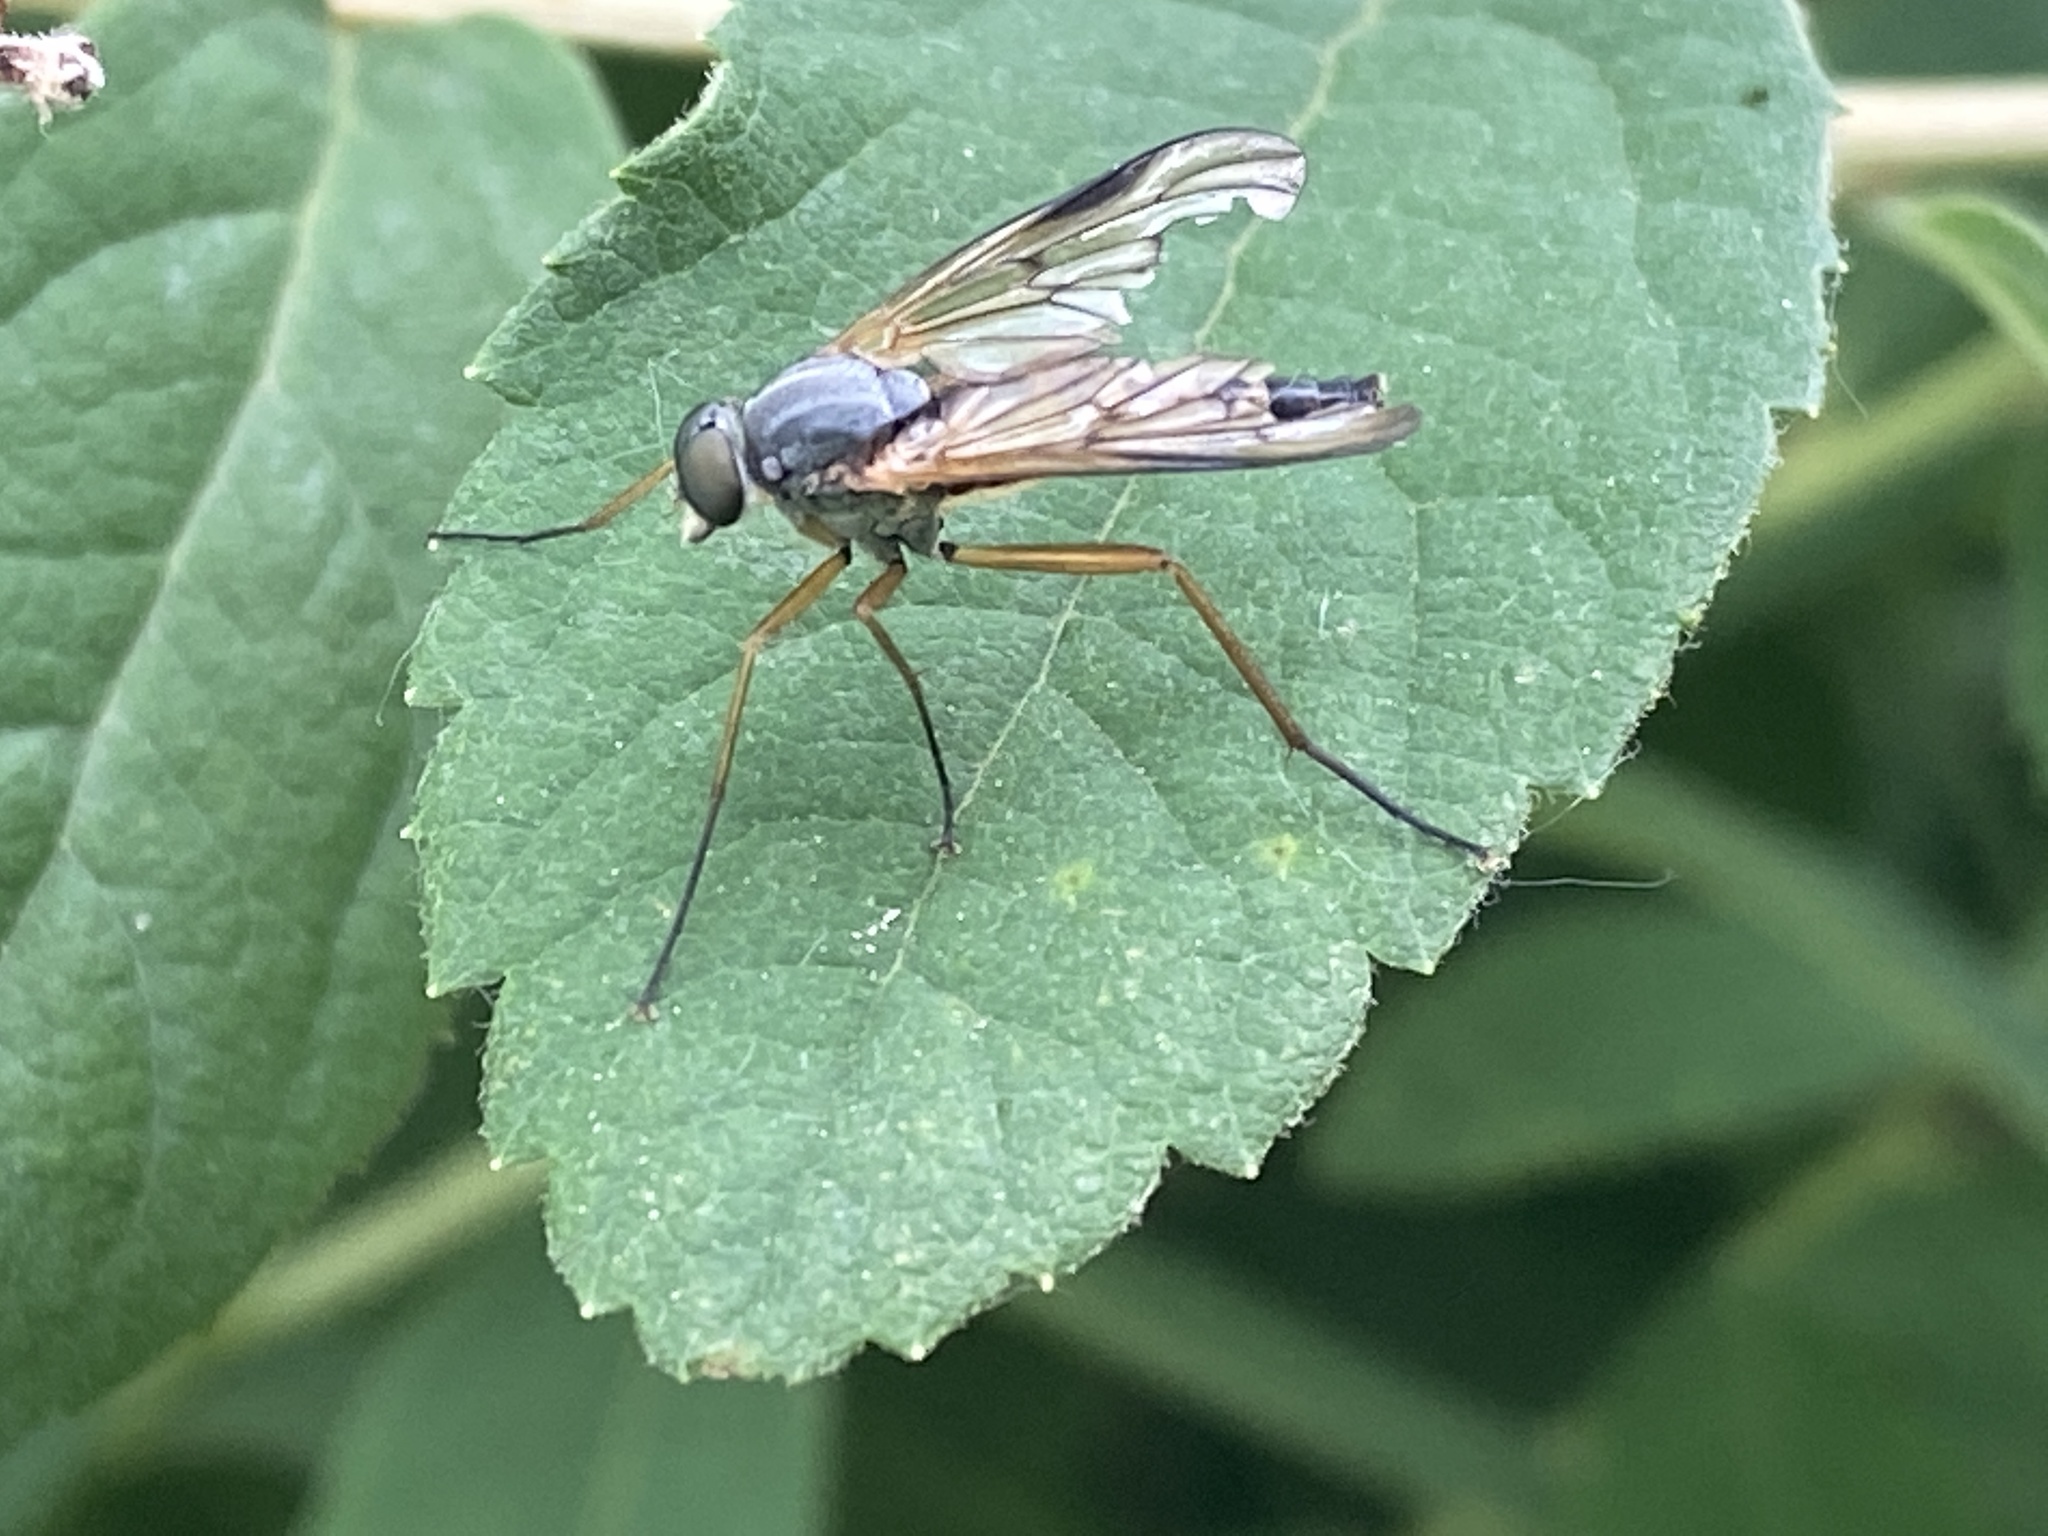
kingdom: Animalia
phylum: Arthropoda
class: Insecta
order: Diptera
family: Rhagionidae
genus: Rhagio
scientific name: Rhagio scolopacea
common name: Downlooker snipefly
